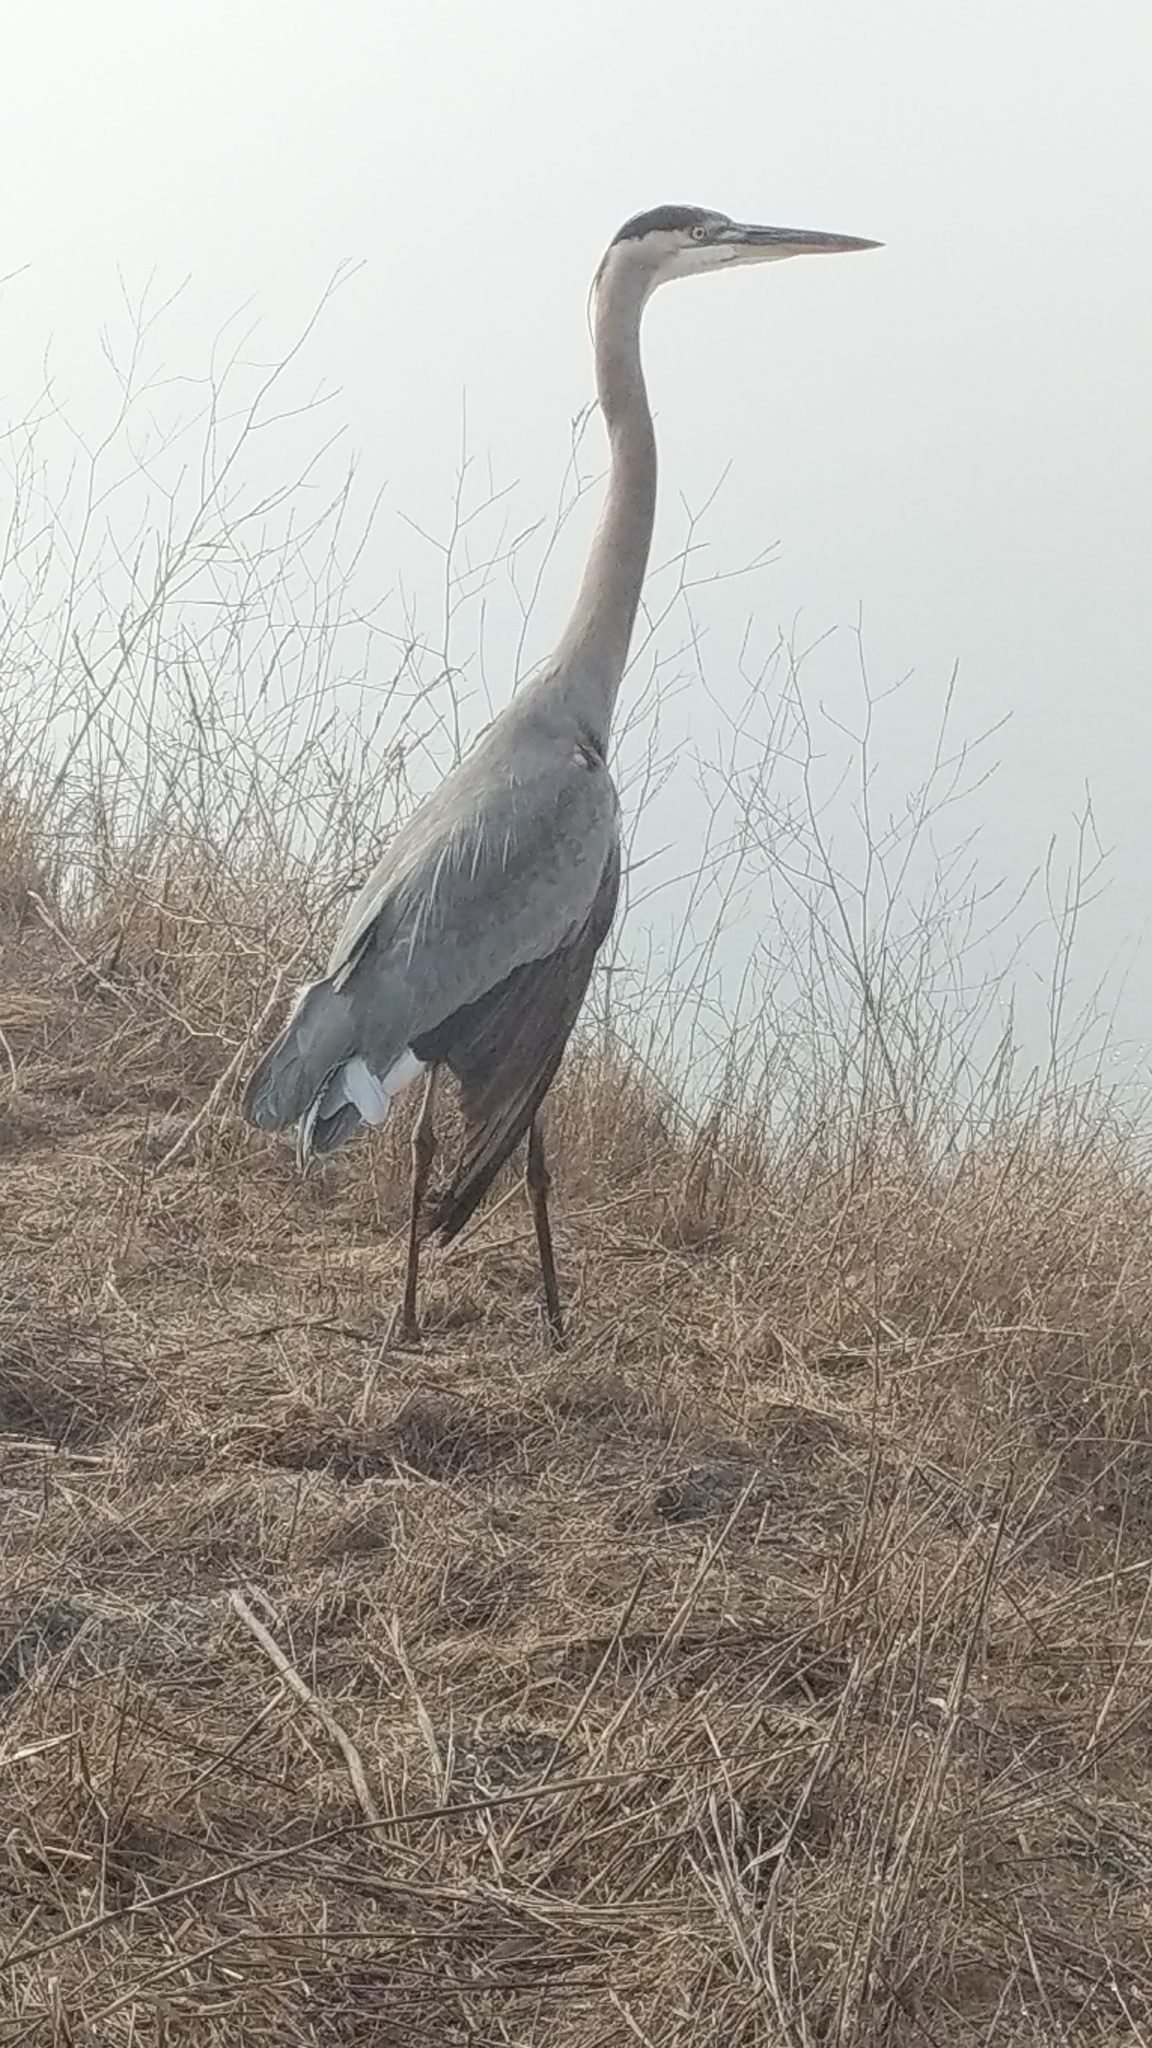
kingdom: Animalia
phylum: Chordata
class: Aves
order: Pelecaniformes
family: Ardeidae
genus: Ardea
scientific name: Ardea herodias
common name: Great blue heron
